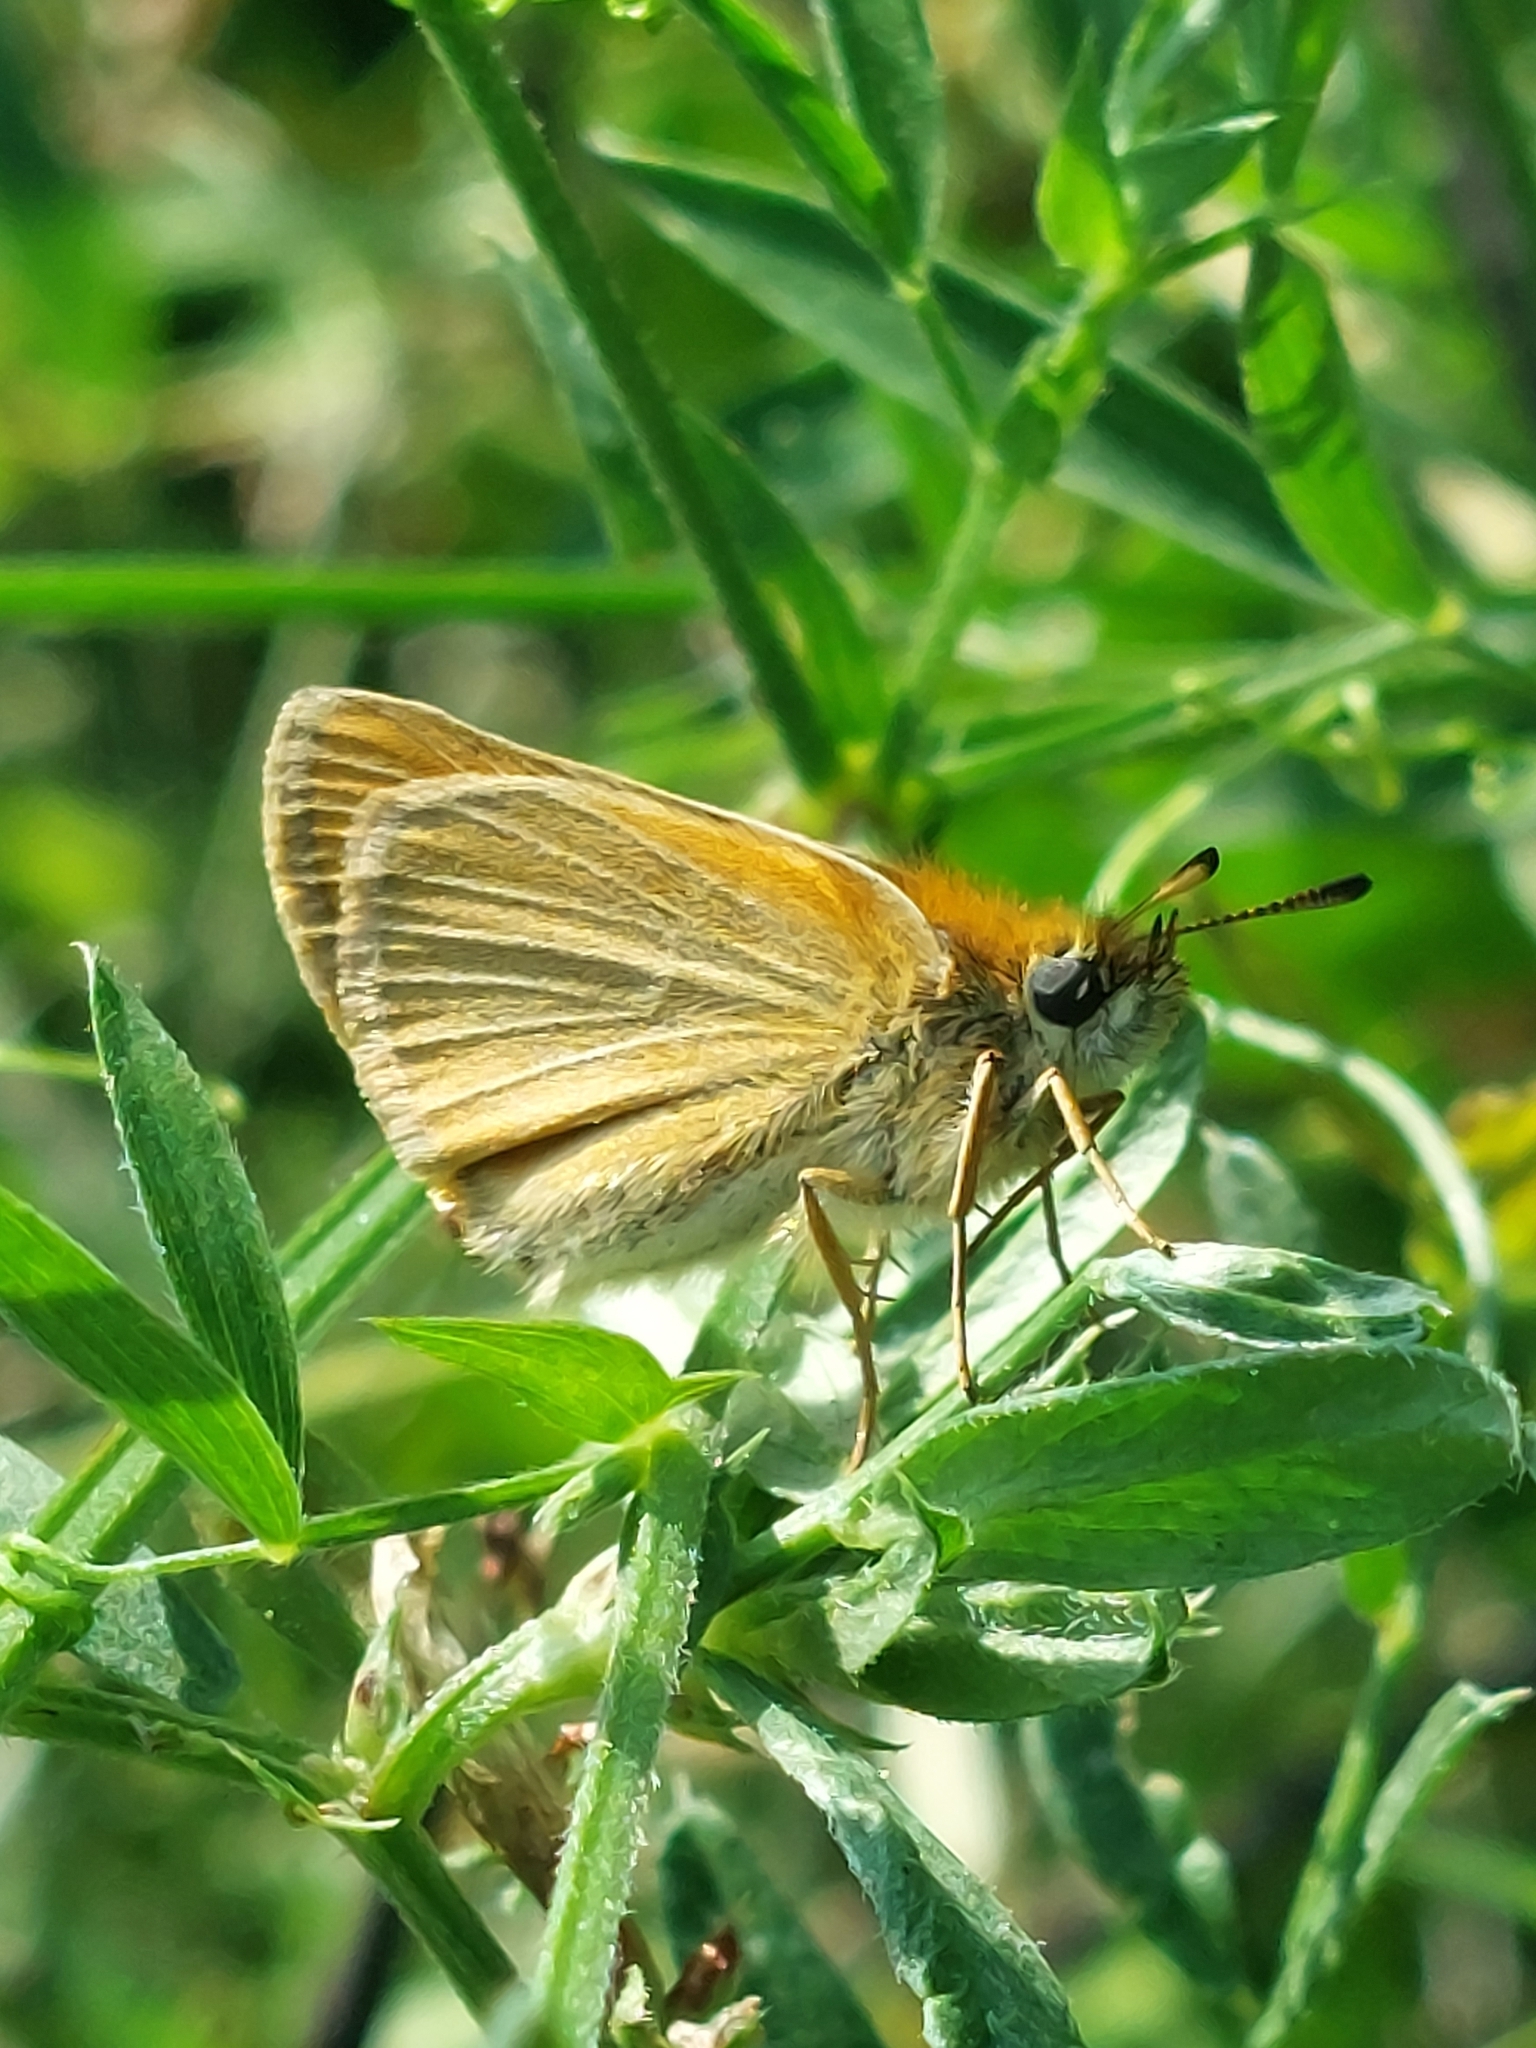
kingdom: Animalia
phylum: Arthropoda
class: Insecta
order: Lepidoptera
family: Hesperiidae
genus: Thymelicus
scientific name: Thymelicus lineola
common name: Essex skipper
